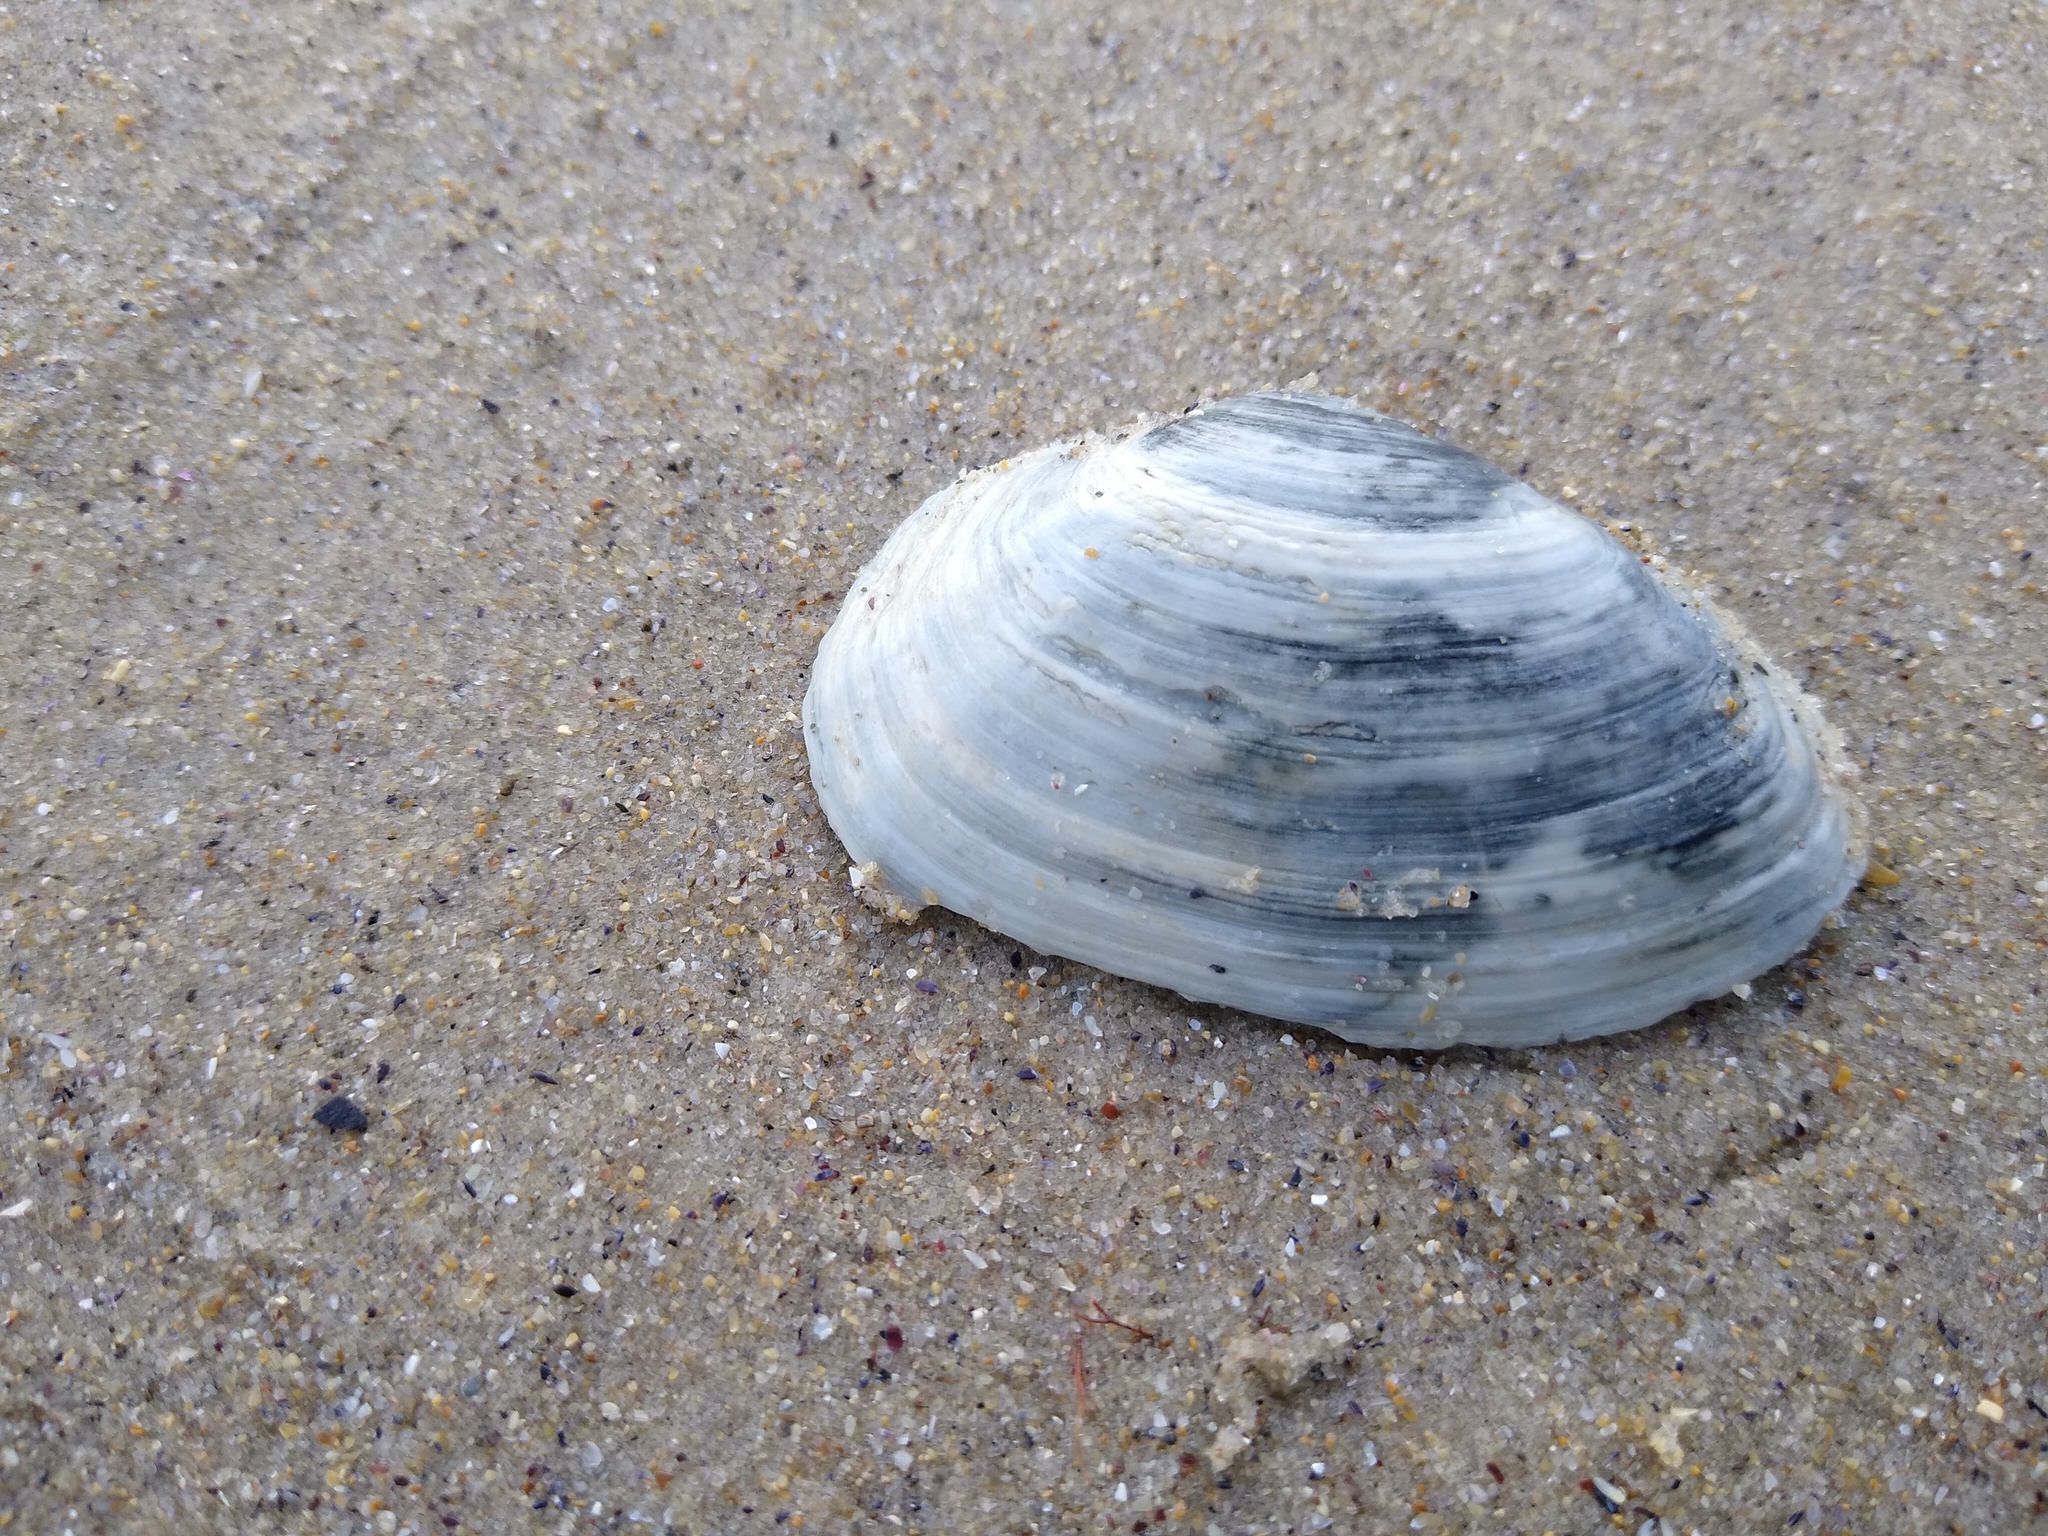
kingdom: Animalia
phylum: Mollusca
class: Bivalvia
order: Myida
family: Myidae
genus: Mya
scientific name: Mya arenaria
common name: Soft-shelled clam
